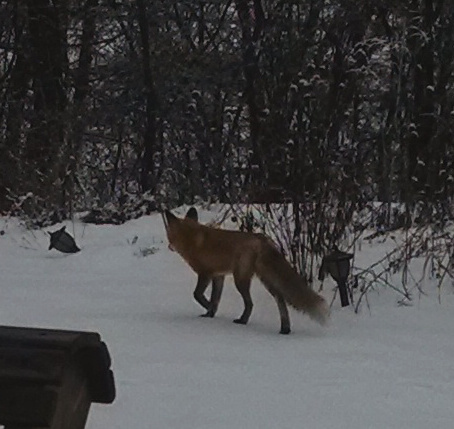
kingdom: Animalia
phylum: Chordata
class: Mammalia
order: Carnivora
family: Canidae
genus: Vulpes
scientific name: Vulpes vulpes
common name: Red fox
